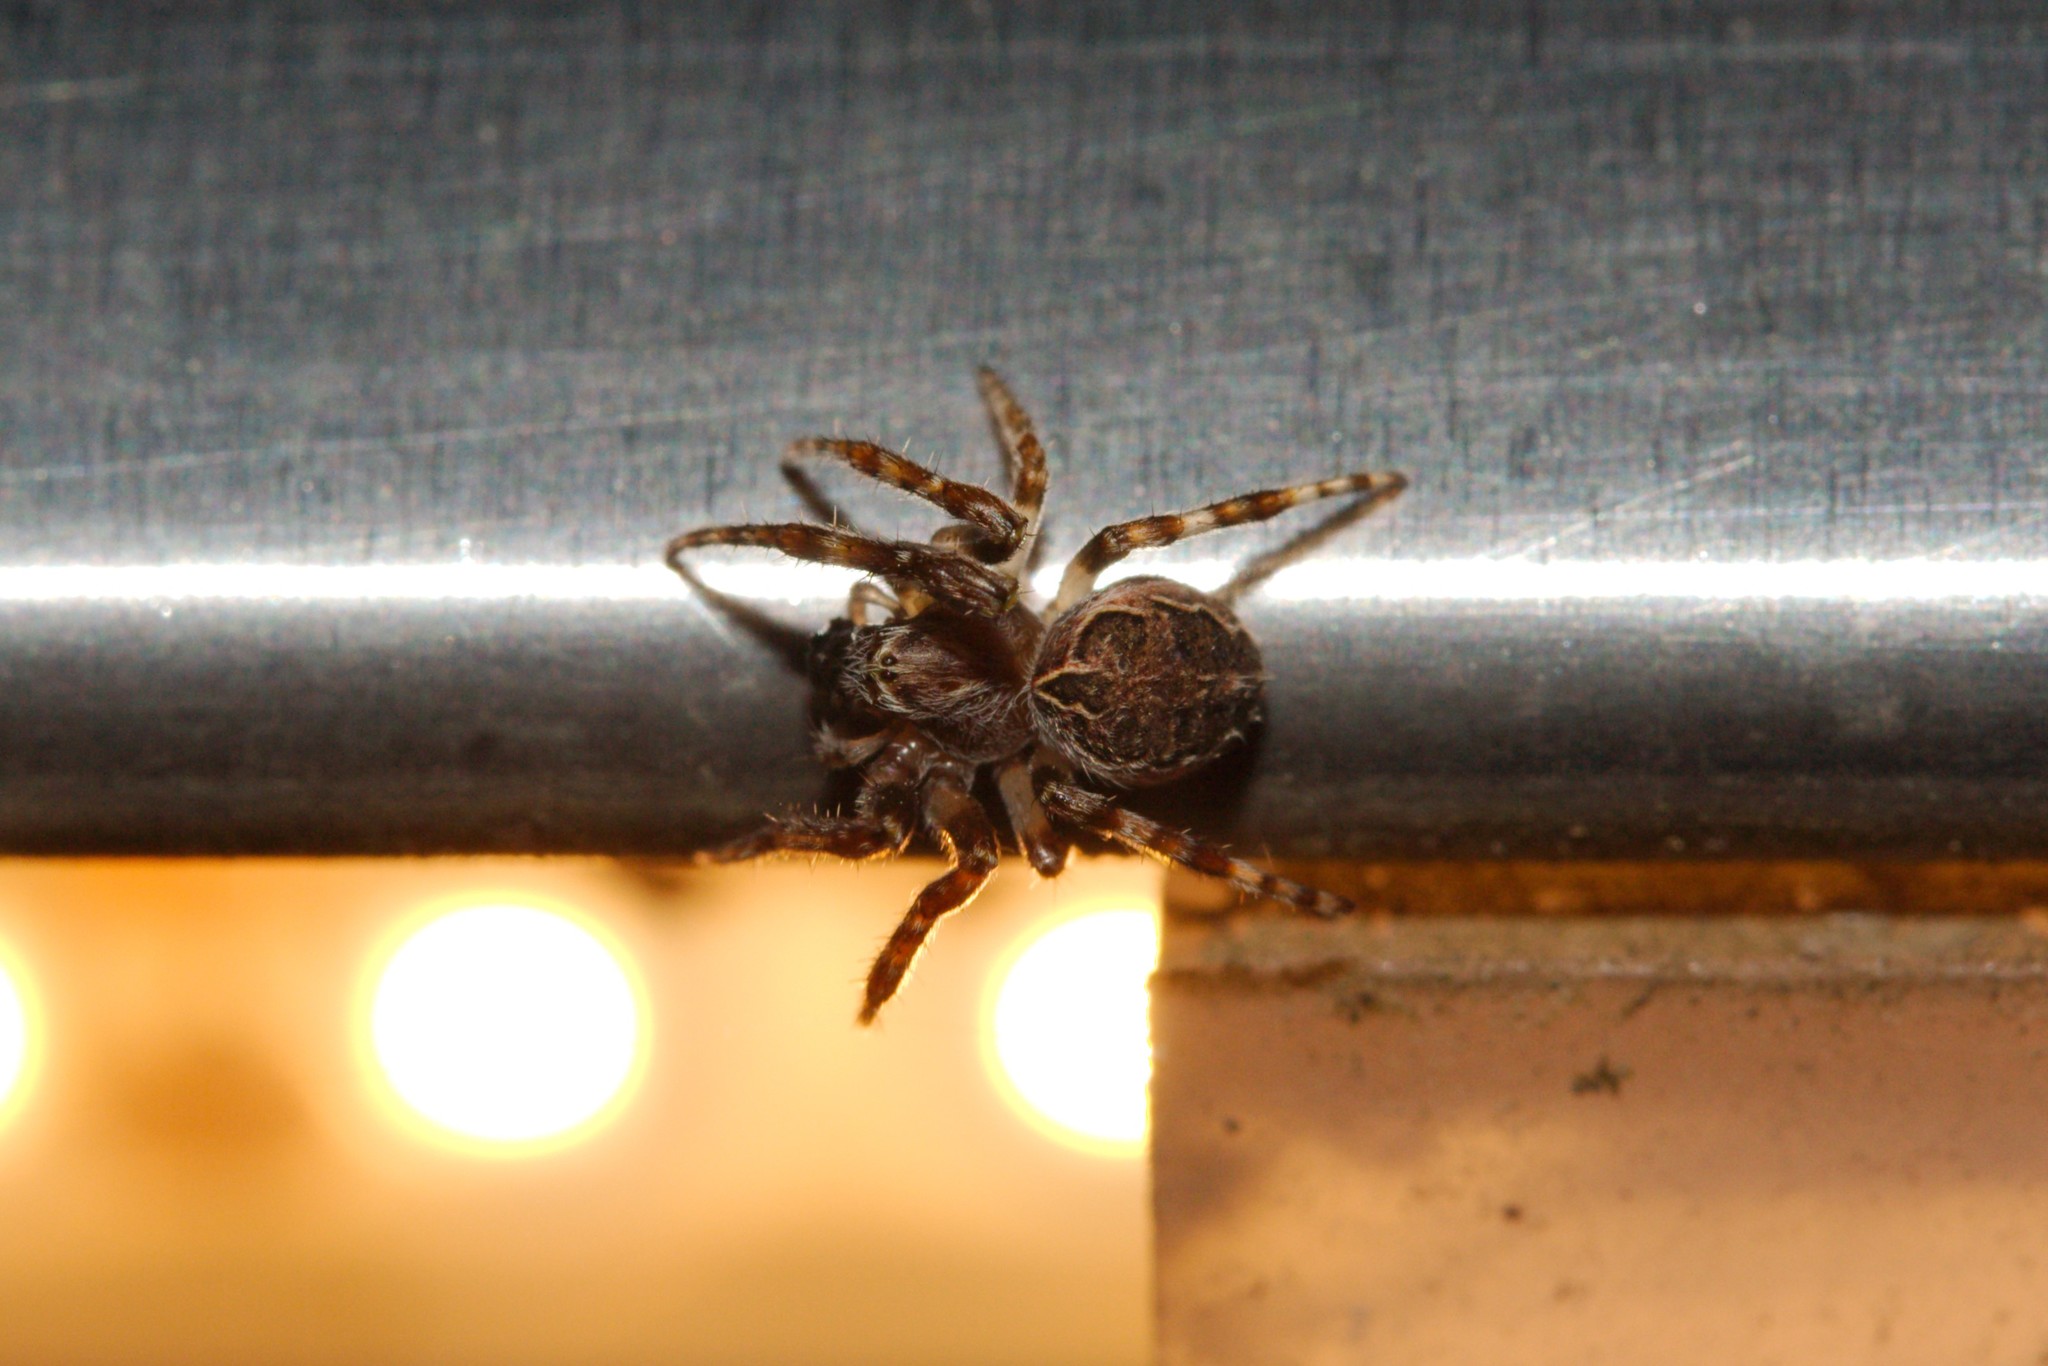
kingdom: Animalia
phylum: Arthropoda
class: Arachnida
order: Araneae
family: Araneidae
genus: Larinioides
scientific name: Larinioides sclopetarius
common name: Bridge orbweaver
